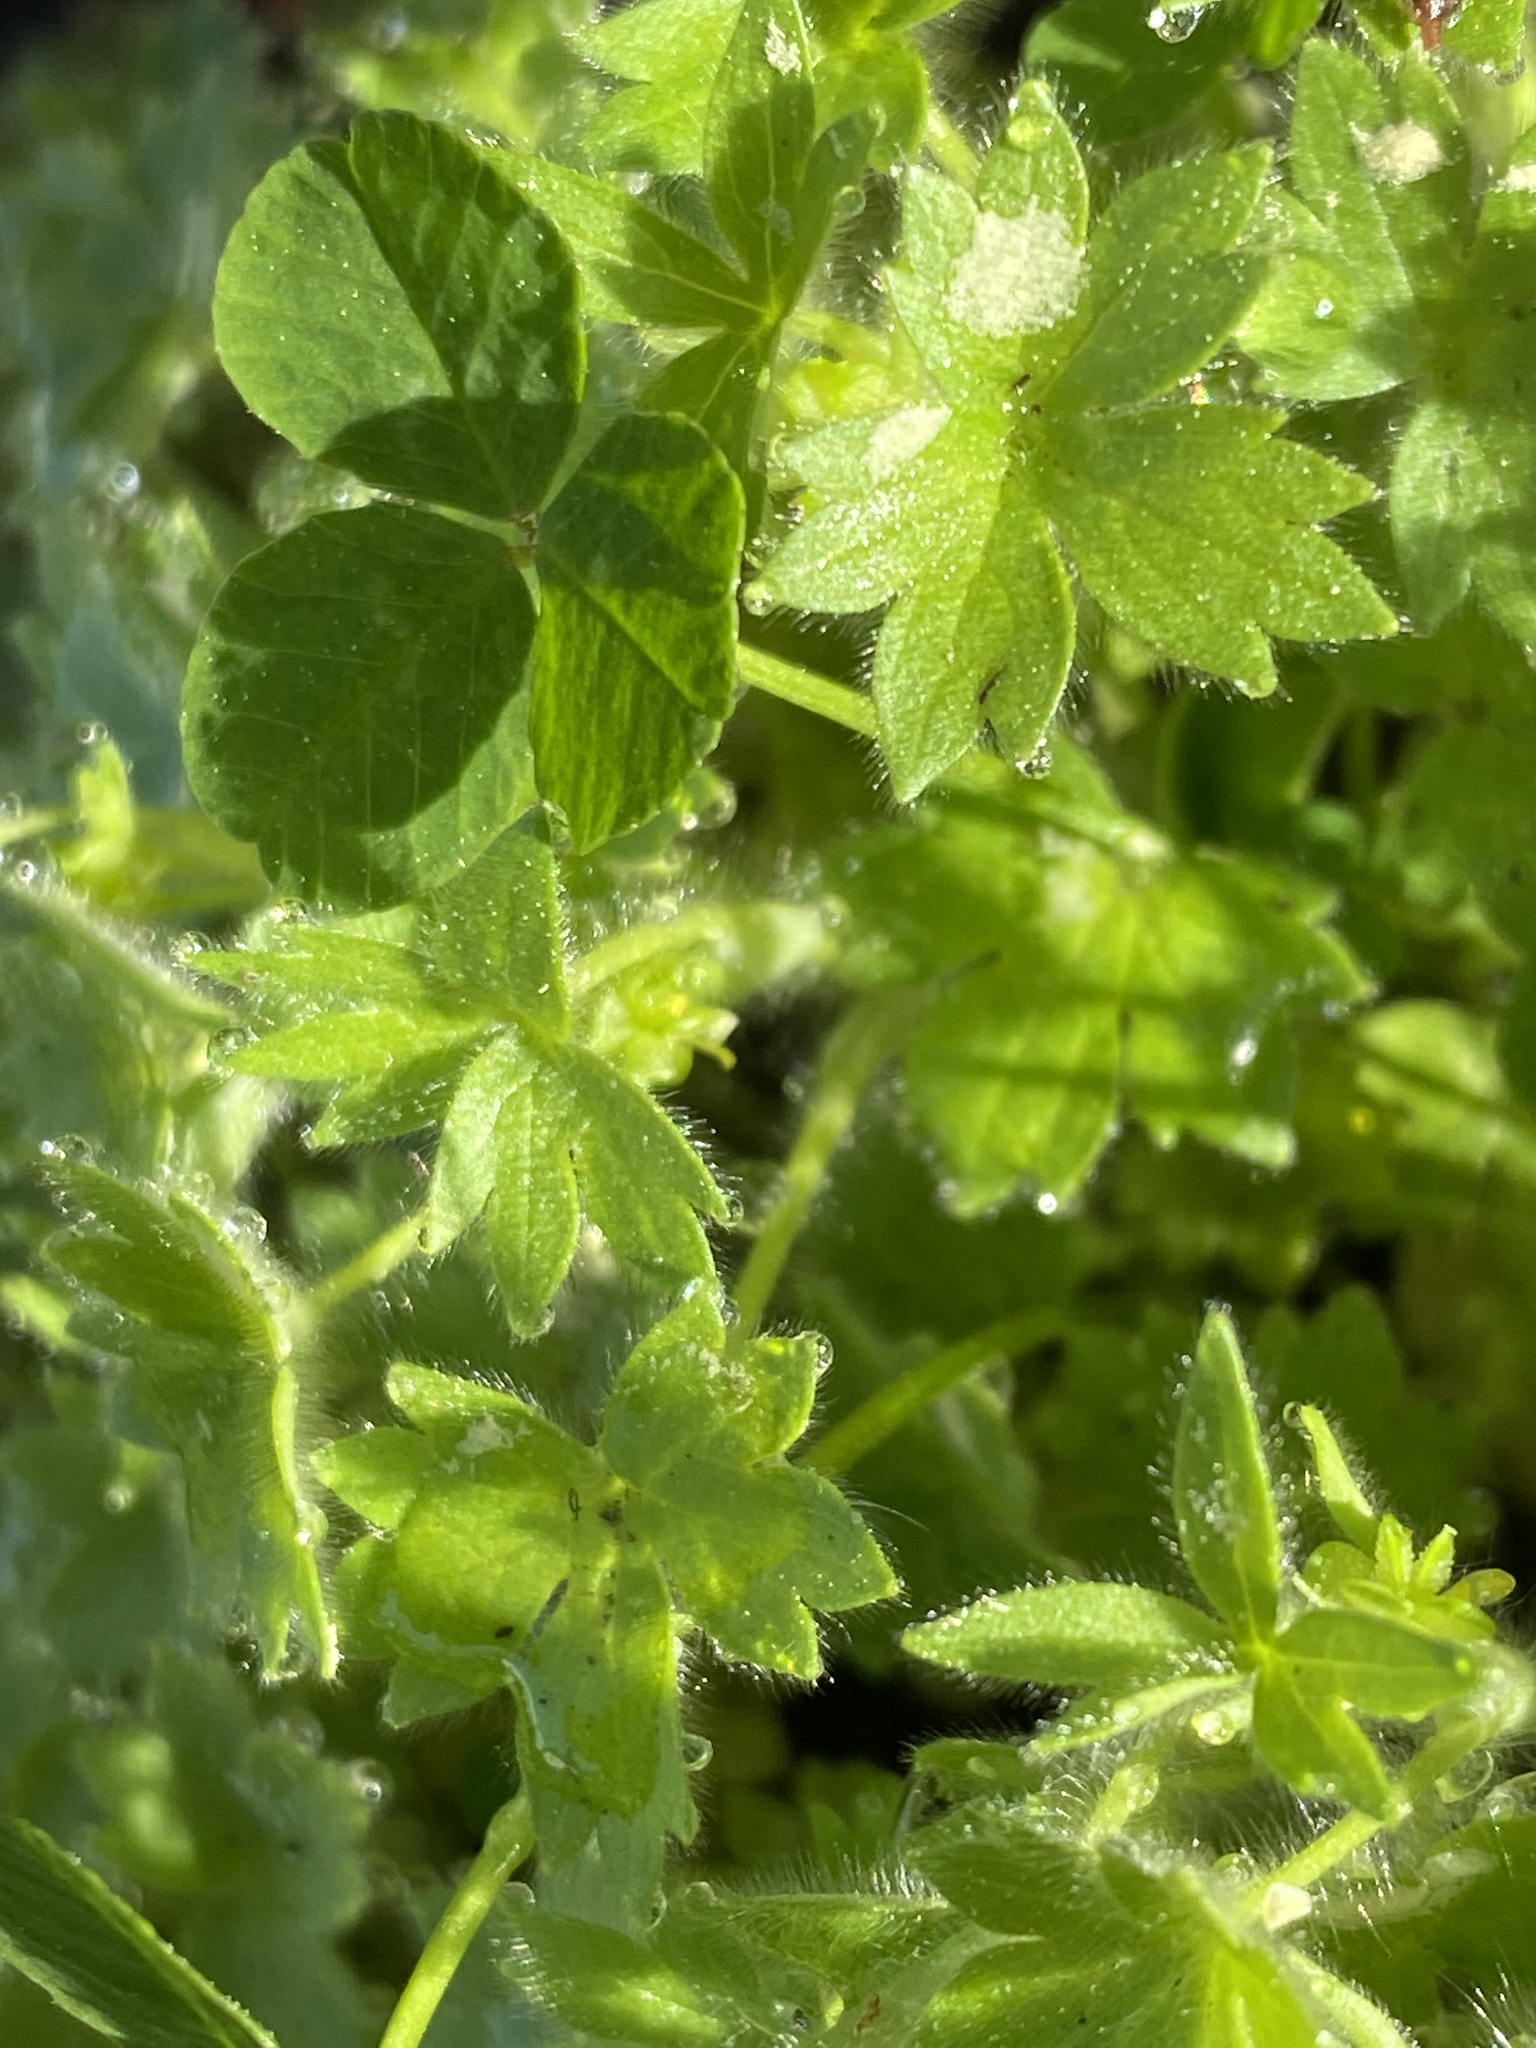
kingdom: Plantae
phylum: Tracheophyta
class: Magnoliopsida
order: Ranunculales
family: Ranunculaceae
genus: Ranunculus
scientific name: Ranunculus parviflorus
